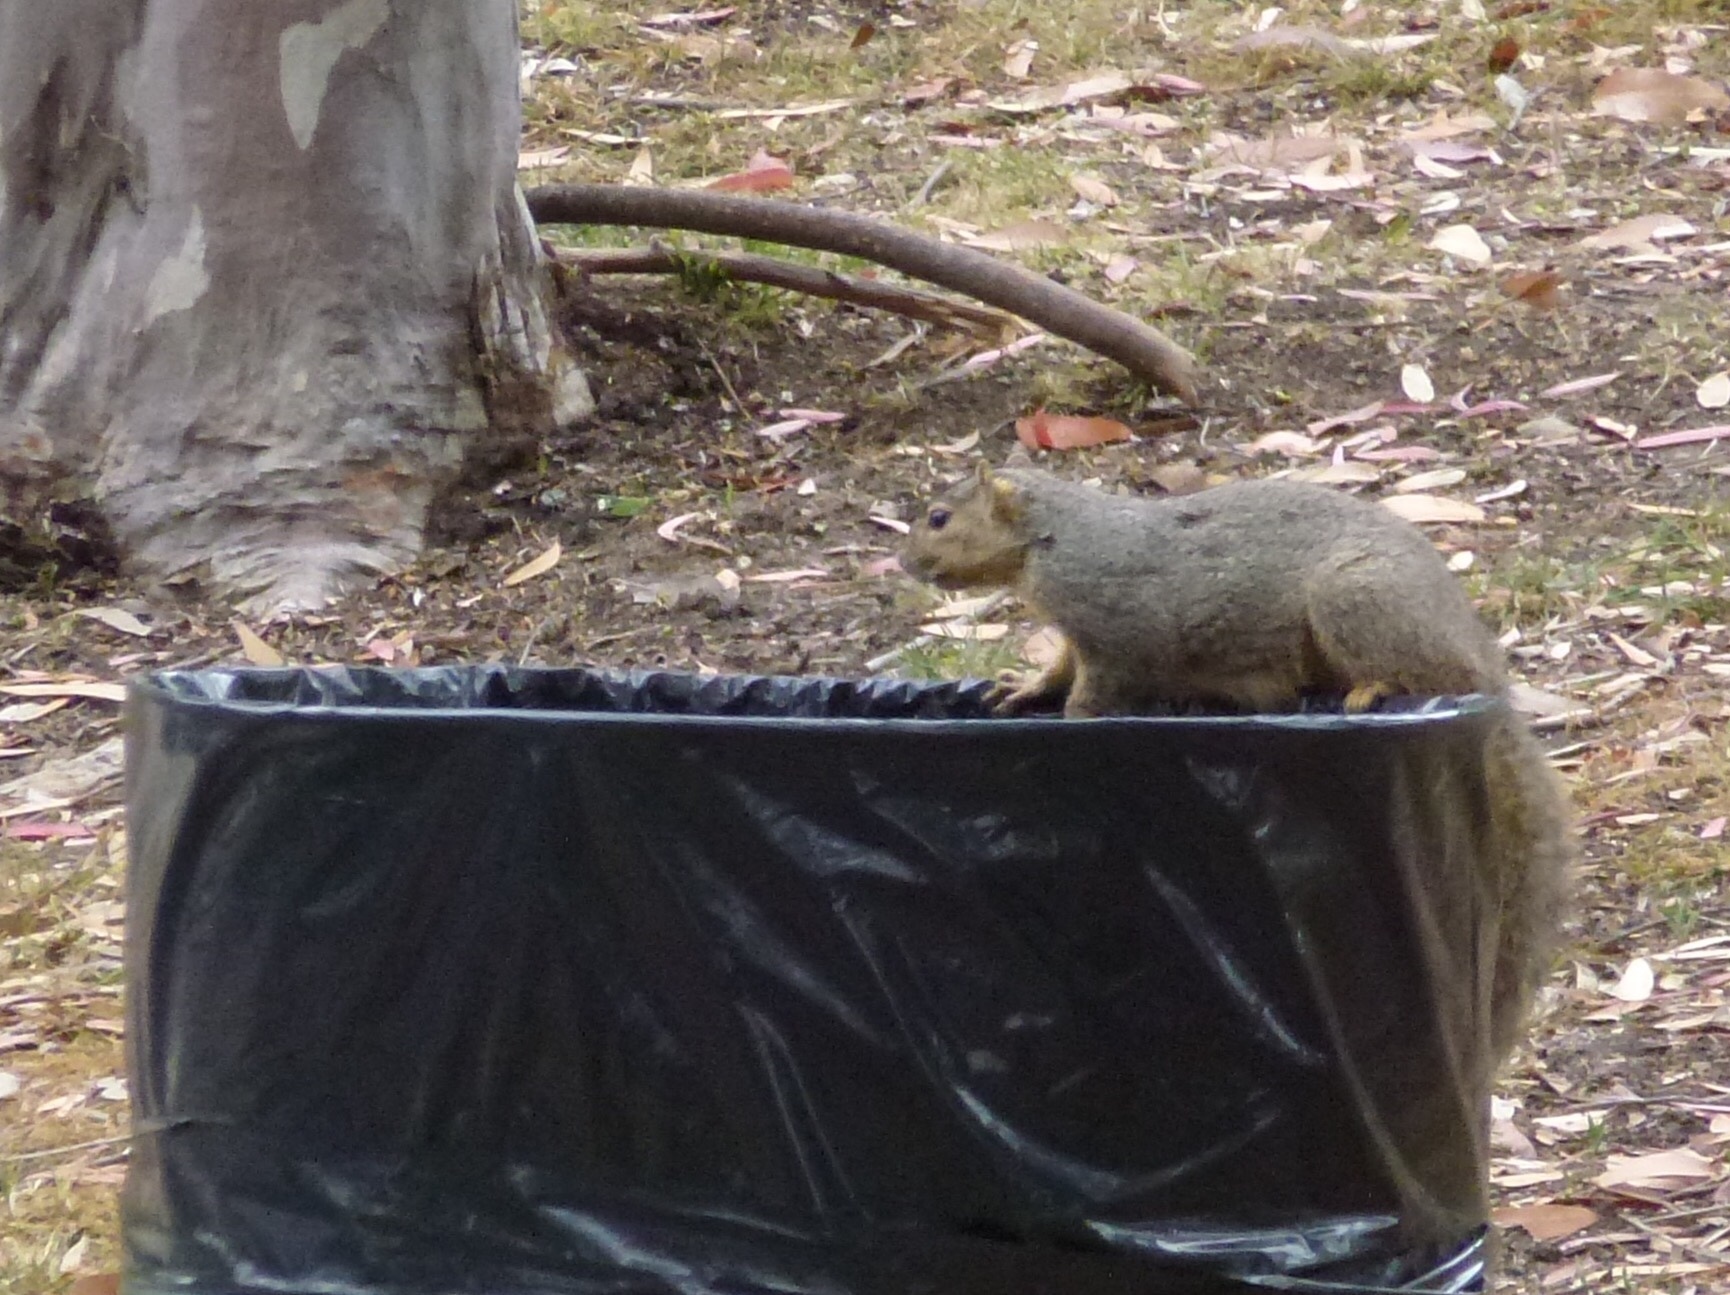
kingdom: Animalia
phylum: Chordata
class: Mammalia
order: Rodentia
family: Sciuridae
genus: Sciurus
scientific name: Sciurus niger
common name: Fox squirrel
